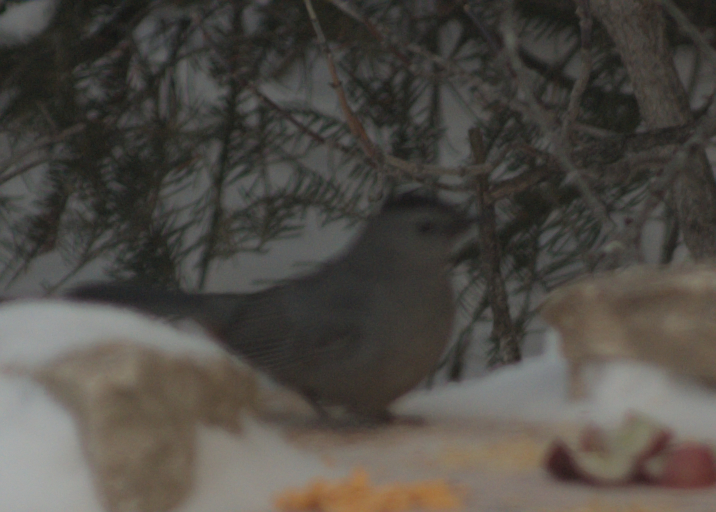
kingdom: Animalia
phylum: Chordata
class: Aves
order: Passeriformes
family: Mimidae
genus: Dumetella
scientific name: Dumetella carolinensis
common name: Gray catbird
